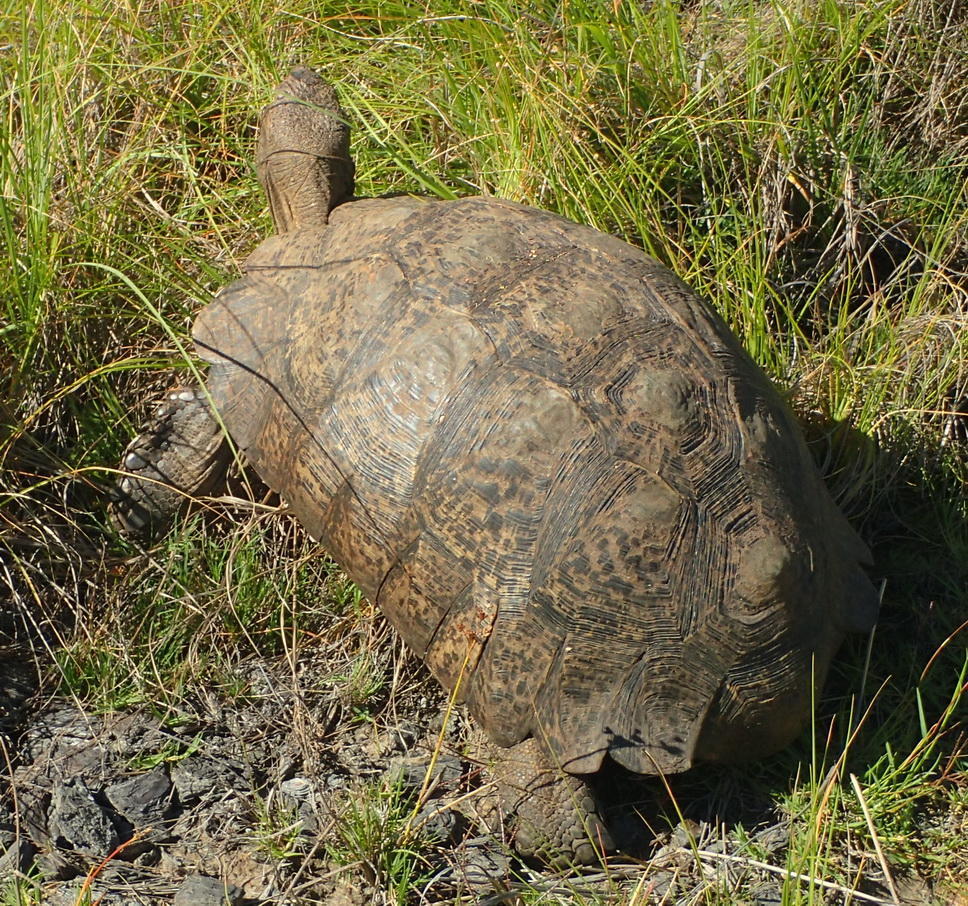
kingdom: Animalia
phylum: Chordata
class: Testudines
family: Testudinidae
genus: Stigmochelys
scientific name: Stigmochelys pardalis
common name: Leopard tortoise
